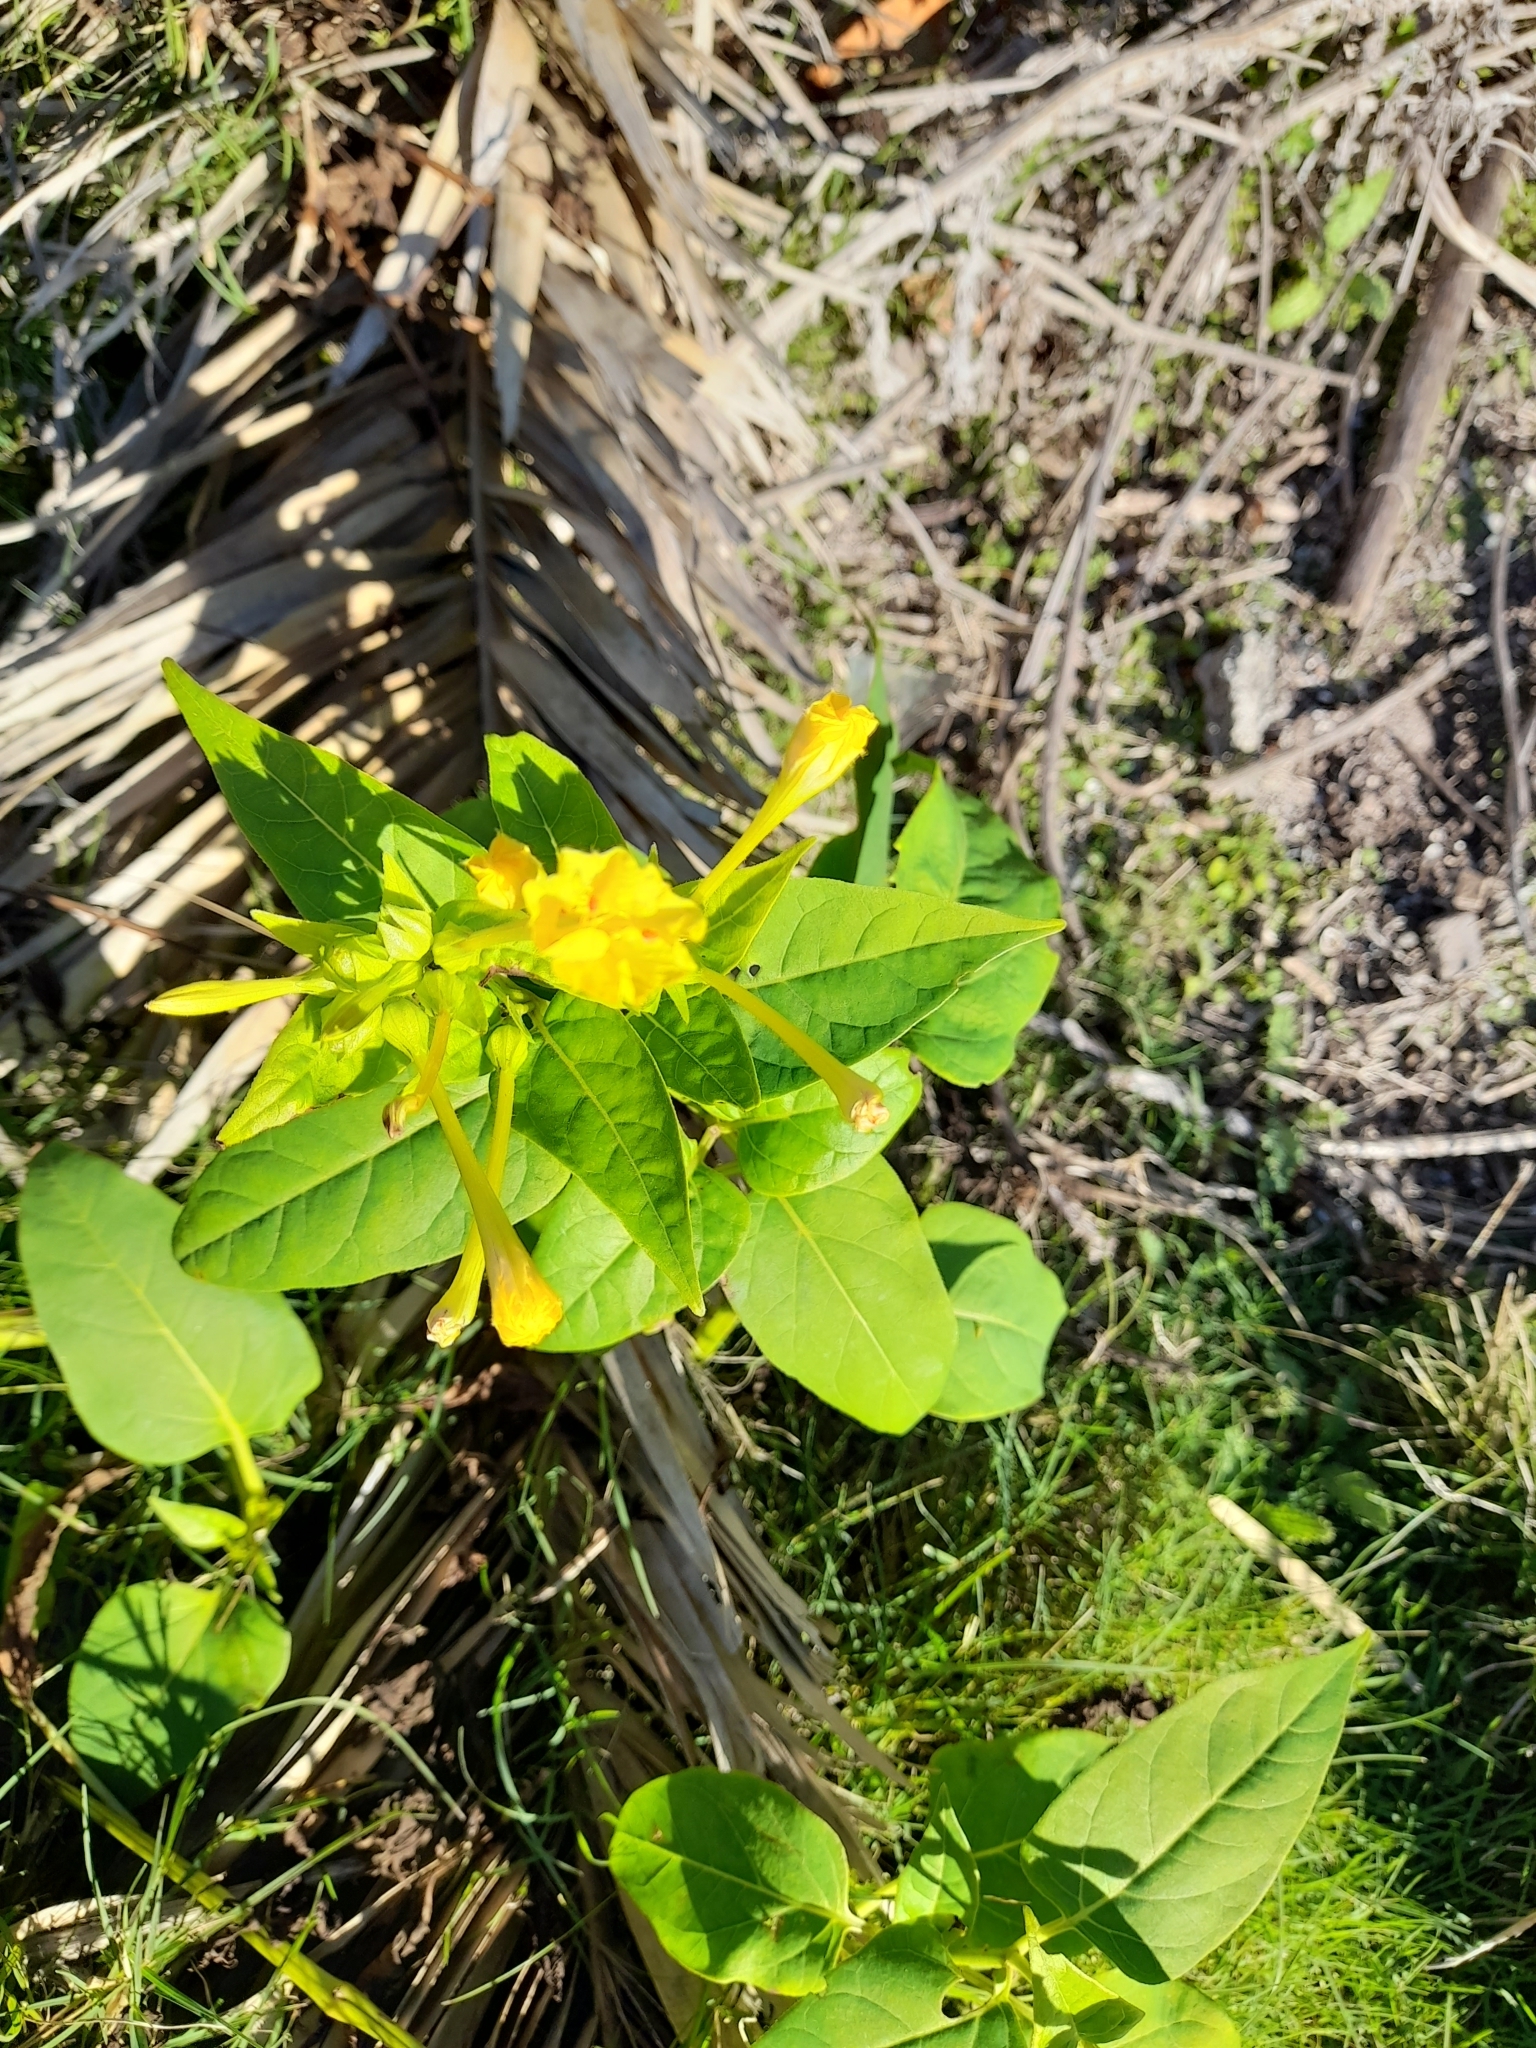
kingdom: Plantae
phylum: Tracheophyta
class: Magnoliopsida
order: Caryophyllales
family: Nyctaginaceae
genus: Mirabilis
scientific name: Mirabilis jalapa
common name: Marvel-of-peru
